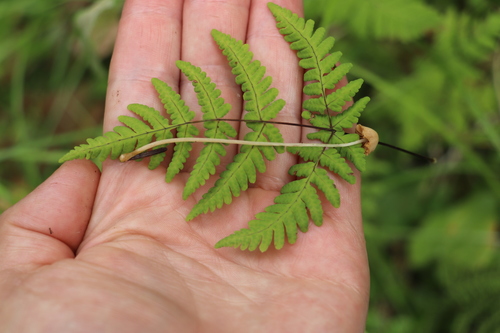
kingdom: Fungi
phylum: Basidiomycota
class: Agaricomycetes
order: Agaricales
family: Bolbitiaceae
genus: Conocybe
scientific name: Conocybe filipes
